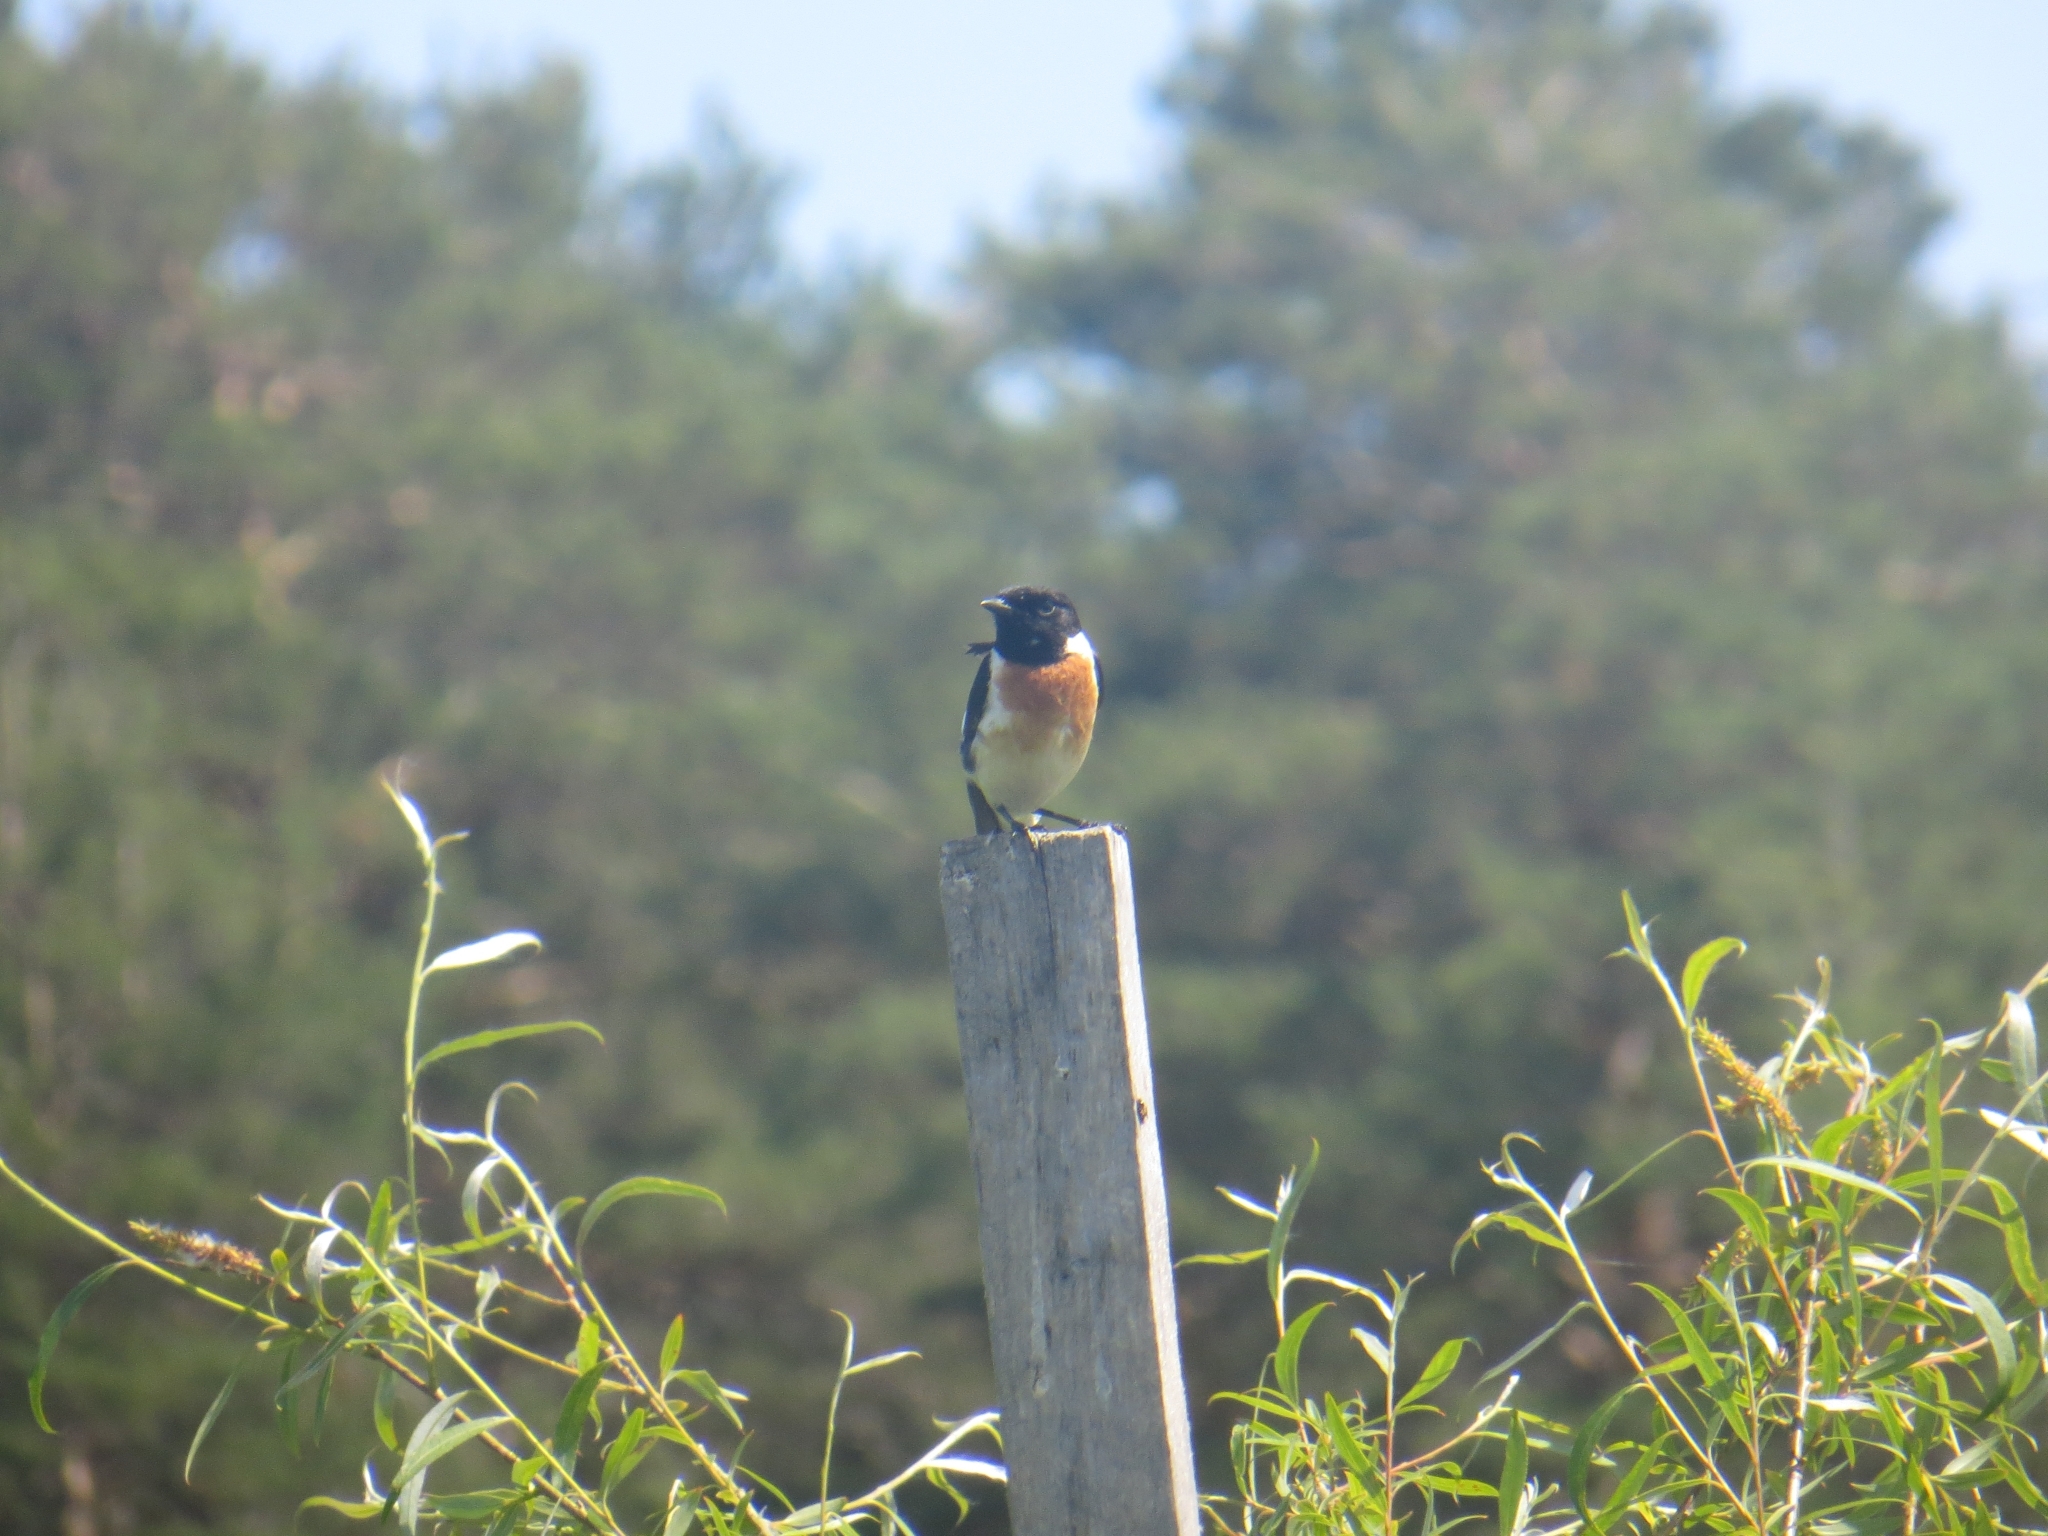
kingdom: Animalia
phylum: Chordata
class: Aves
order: Passeriformes
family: Muscicapidae
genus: Saxicola
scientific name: Saxicola maurus
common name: Siberian stonechat
